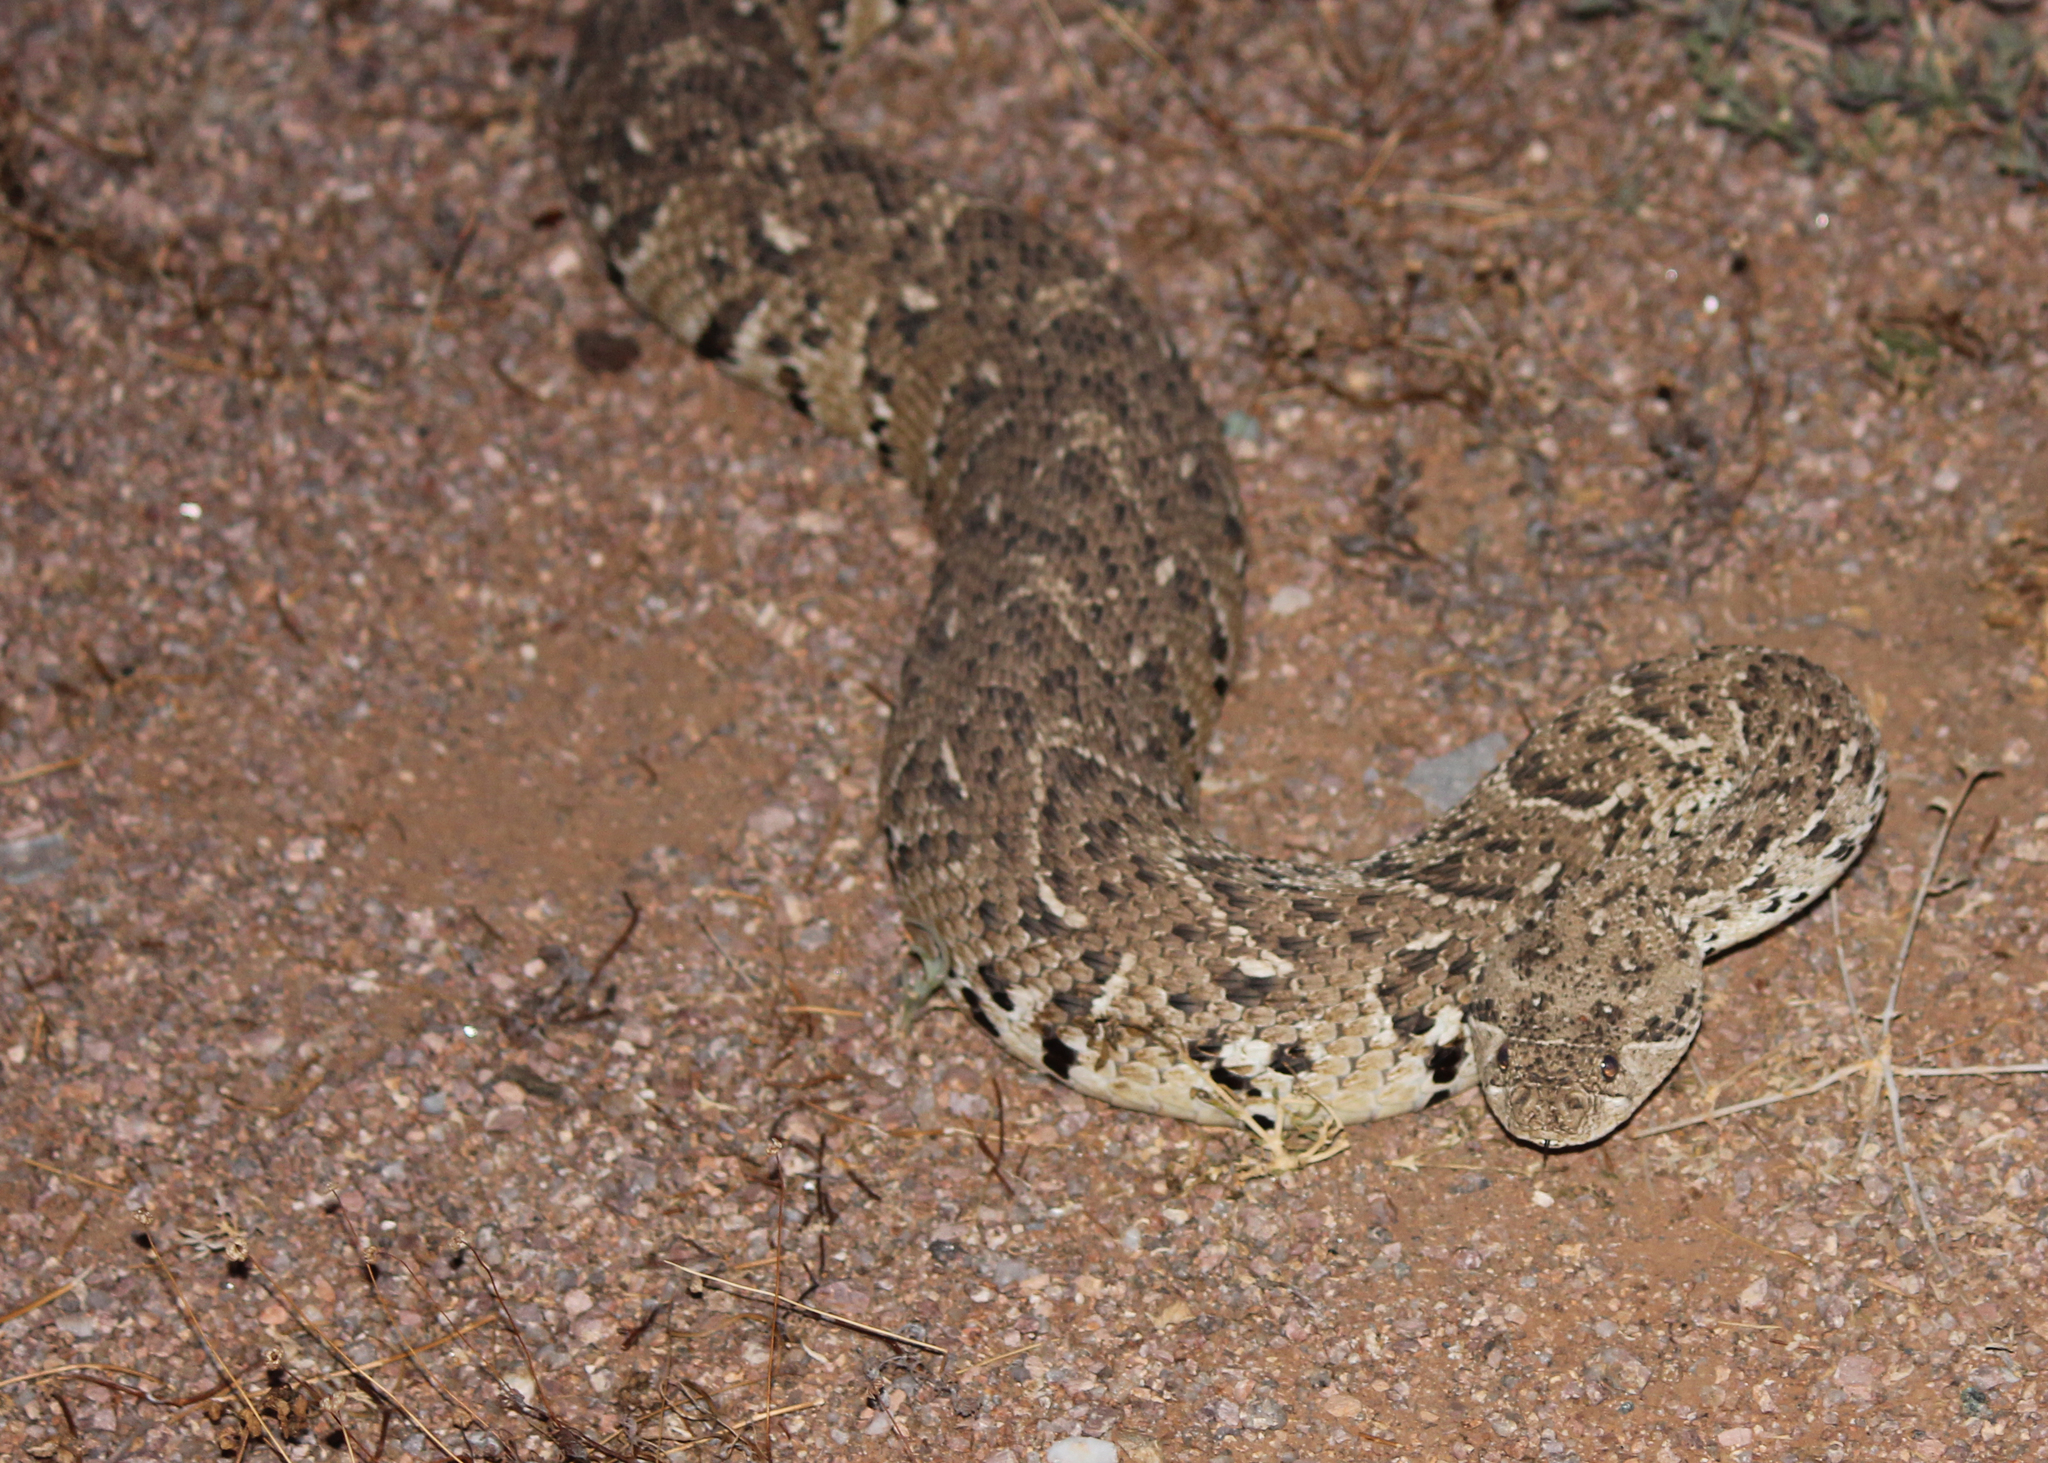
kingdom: Animalia
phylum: Chordata
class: Squamata
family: Viperidae
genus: Bitis
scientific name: Bitis arietans
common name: Puff adder
